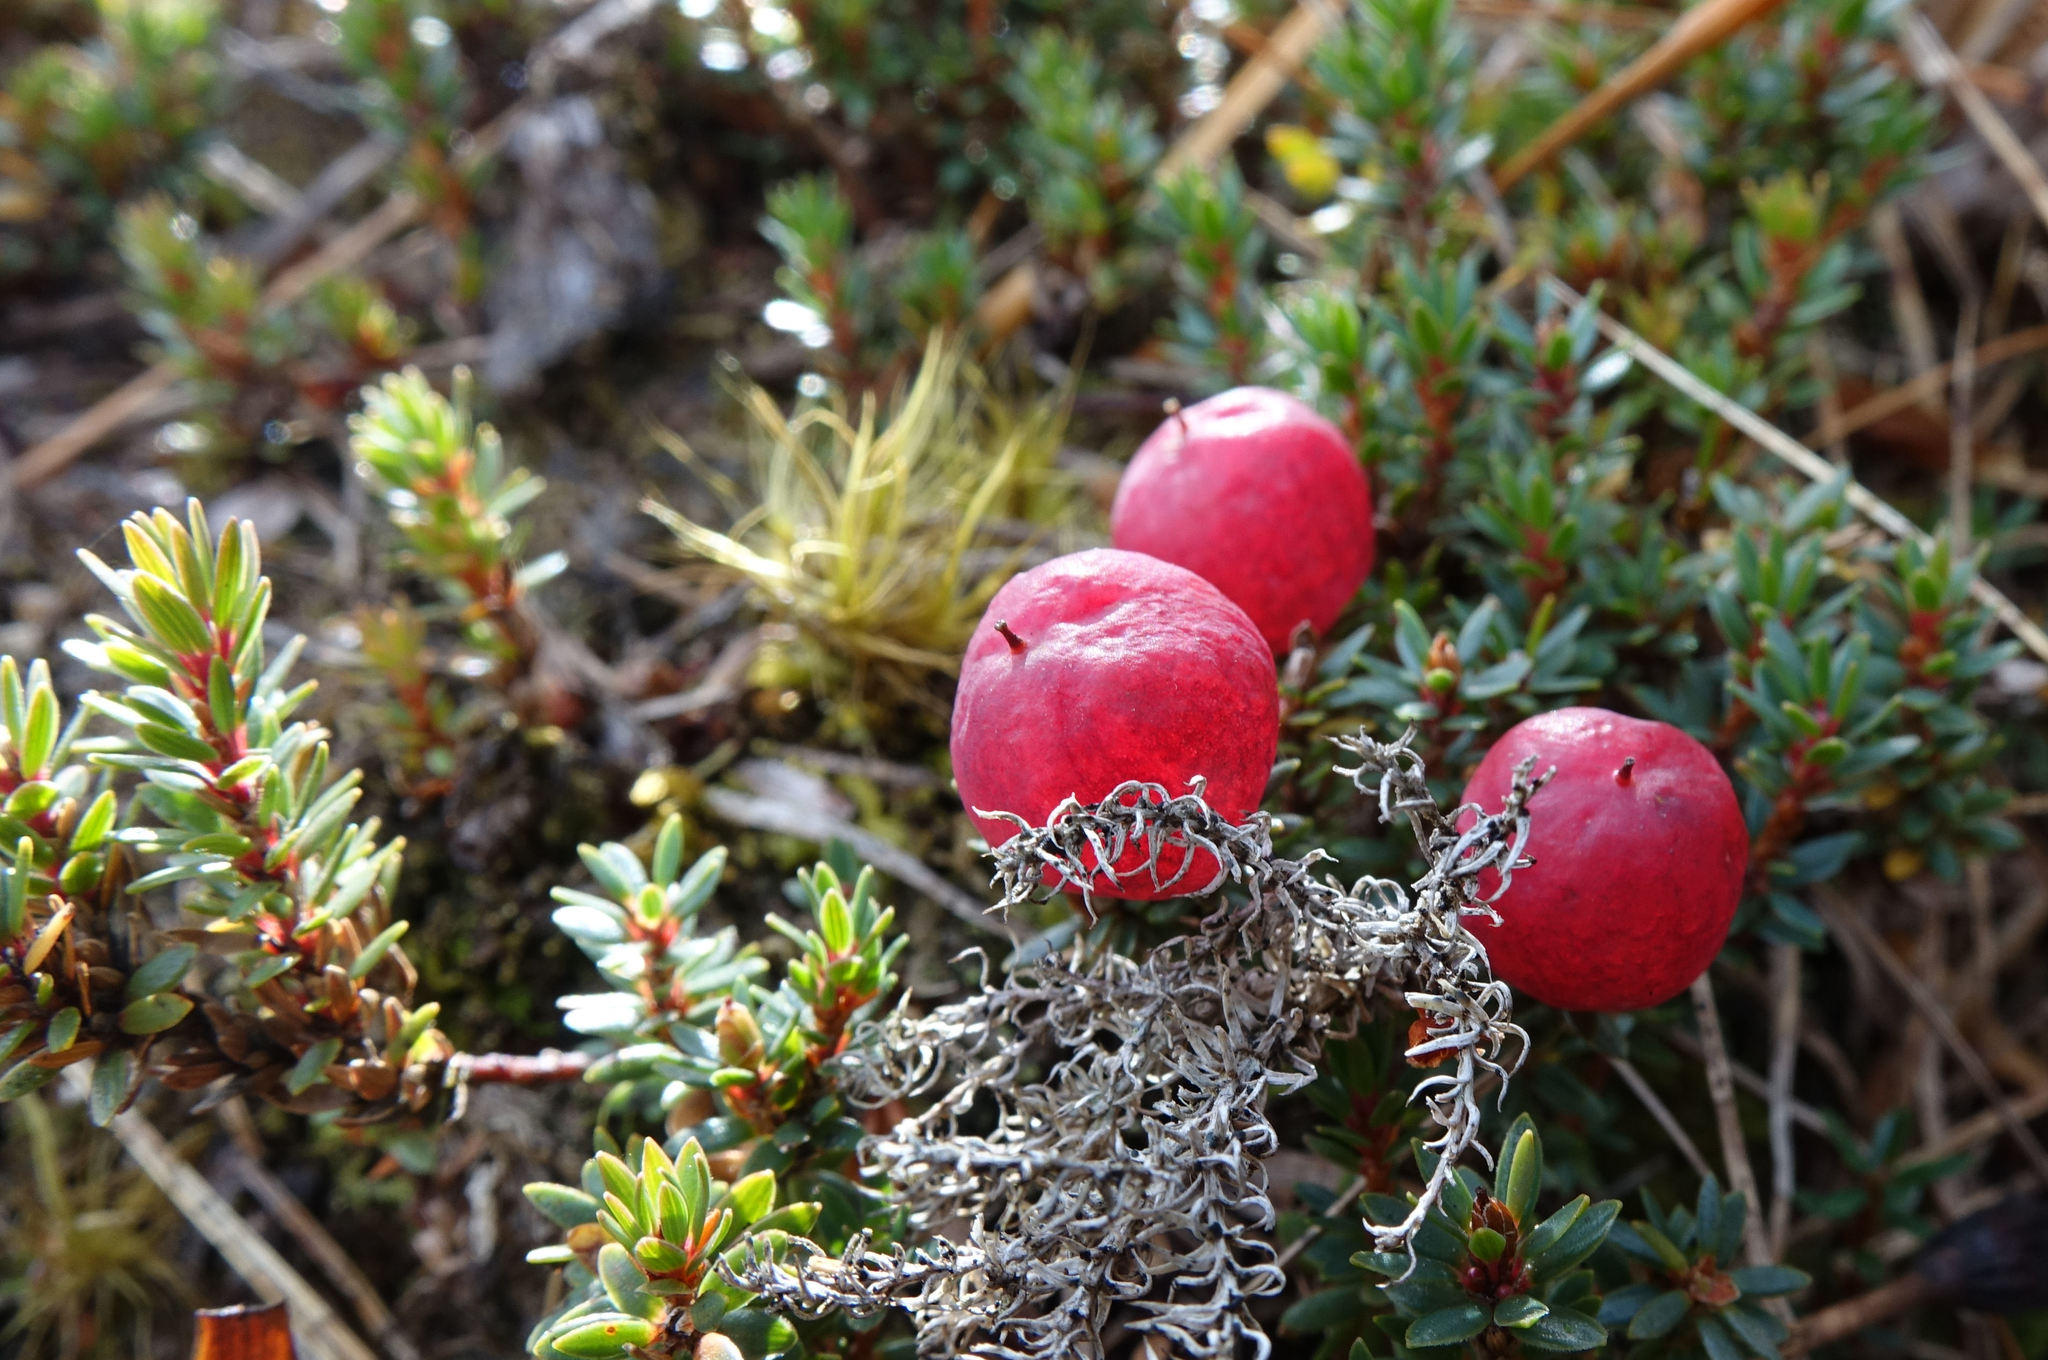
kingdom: Plantae
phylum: Tracheophyta
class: Magnoliopsida
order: Ericales
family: Ericaceae
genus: Pentachondra
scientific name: Pentachondra pumila
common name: Carpet-heath
